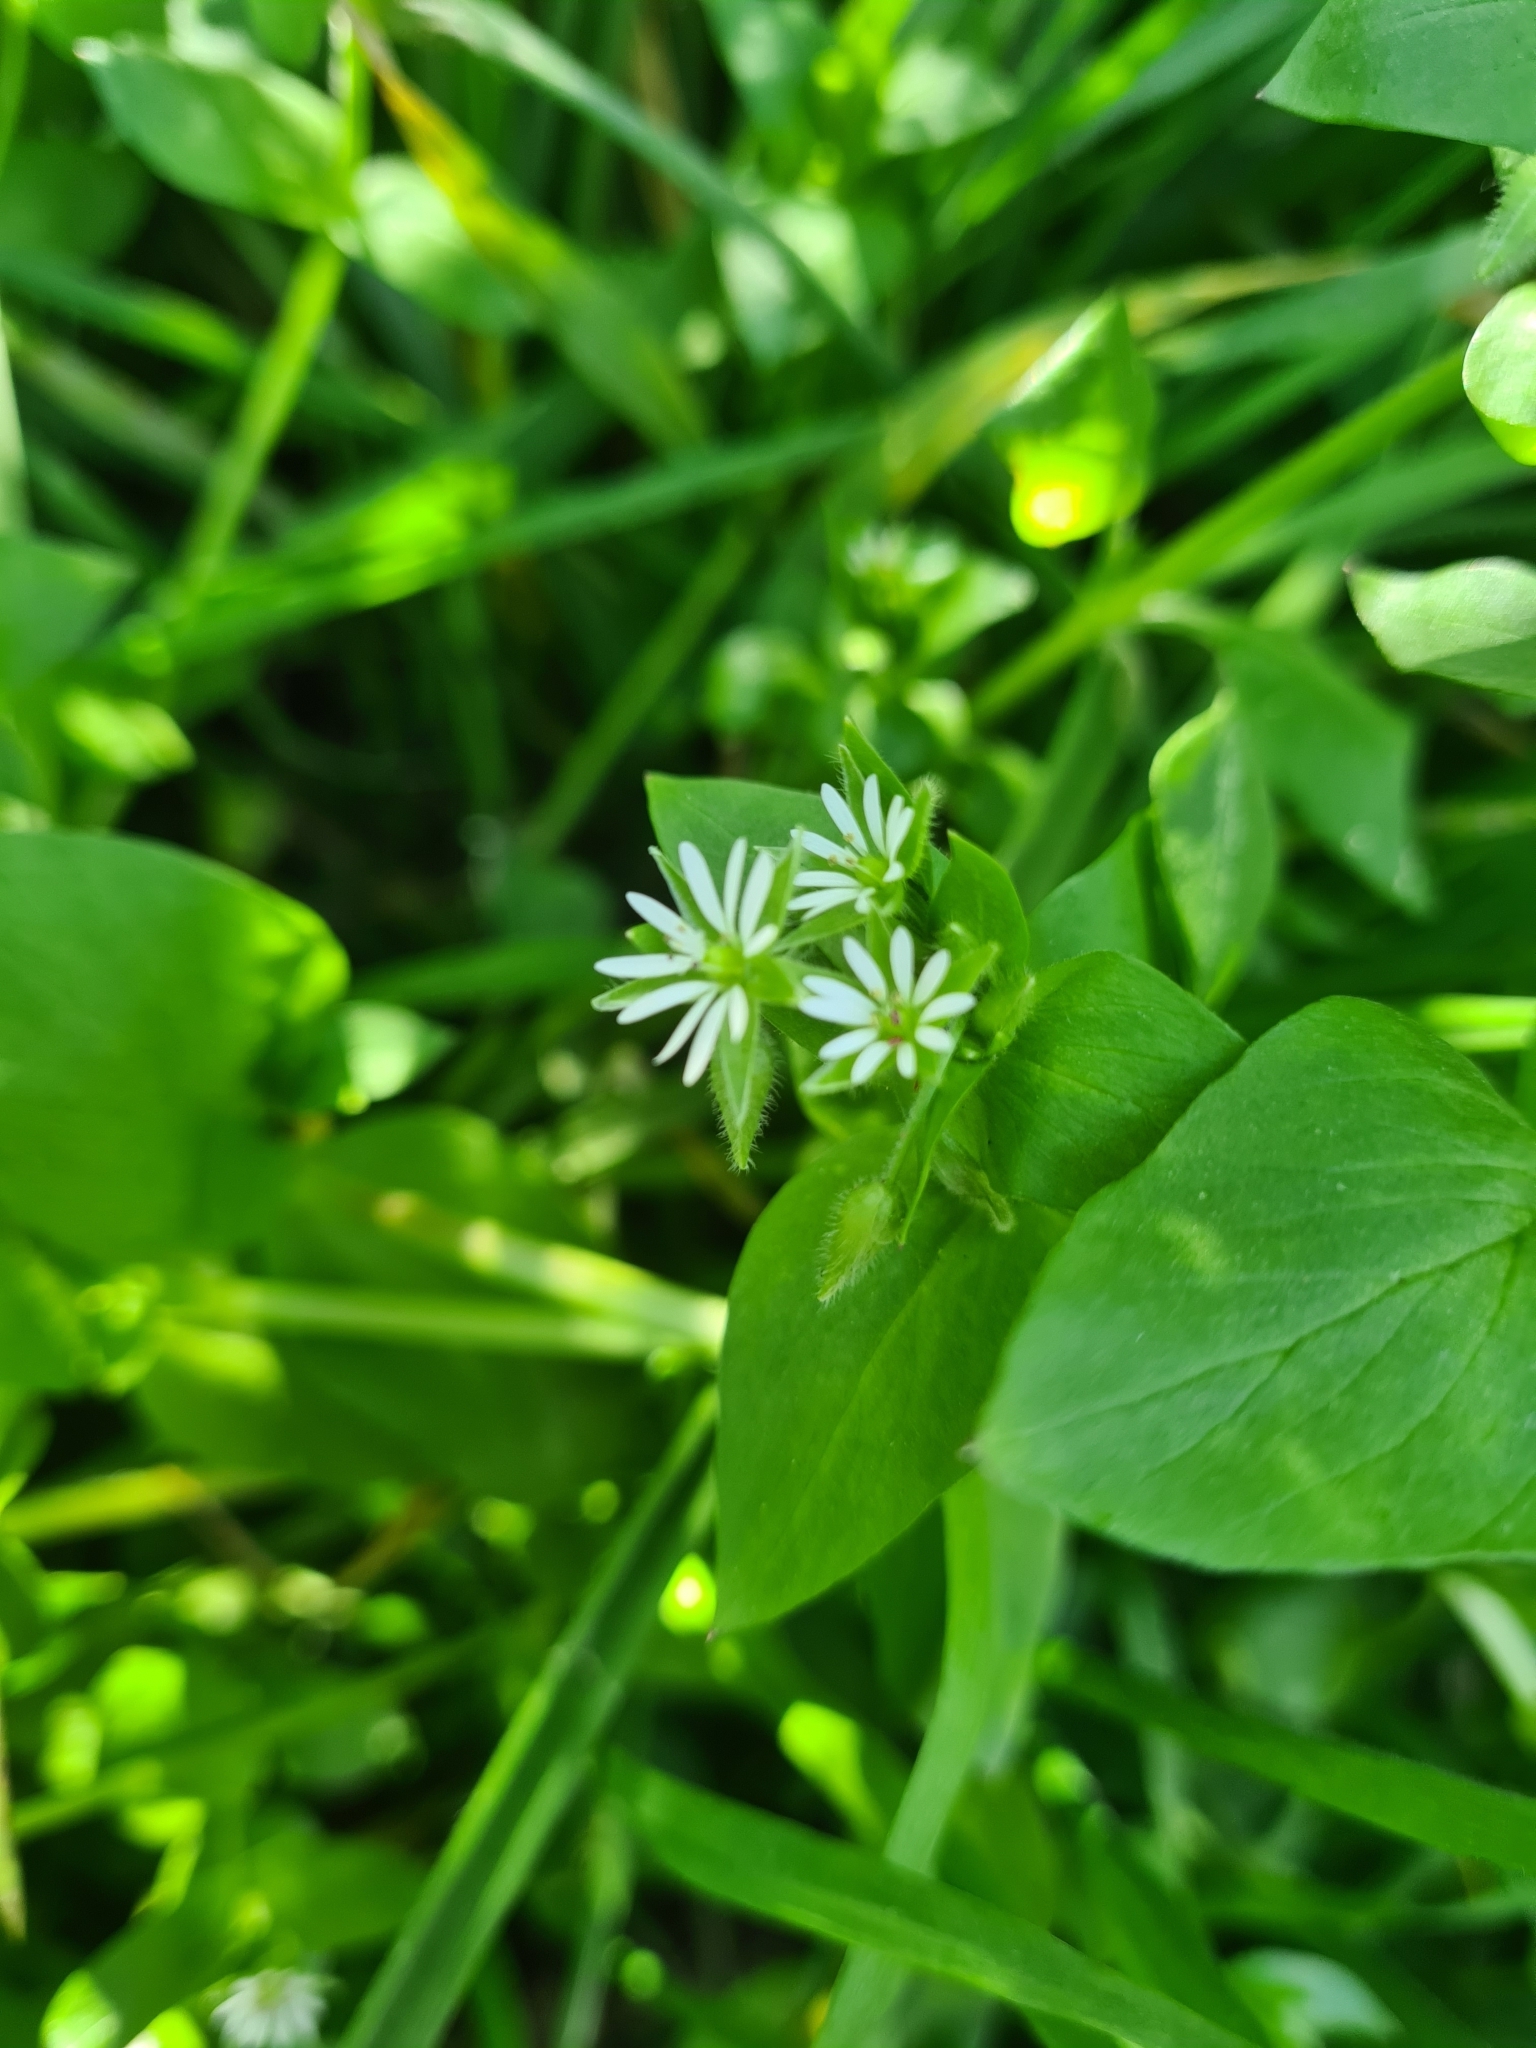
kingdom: Plantae
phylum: Tracheophyta
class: Magnoliopsida
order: Caryophyllales
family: Caryophyllaceae
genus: Stellaria
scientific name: Stellaria media
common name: Common chickweed
